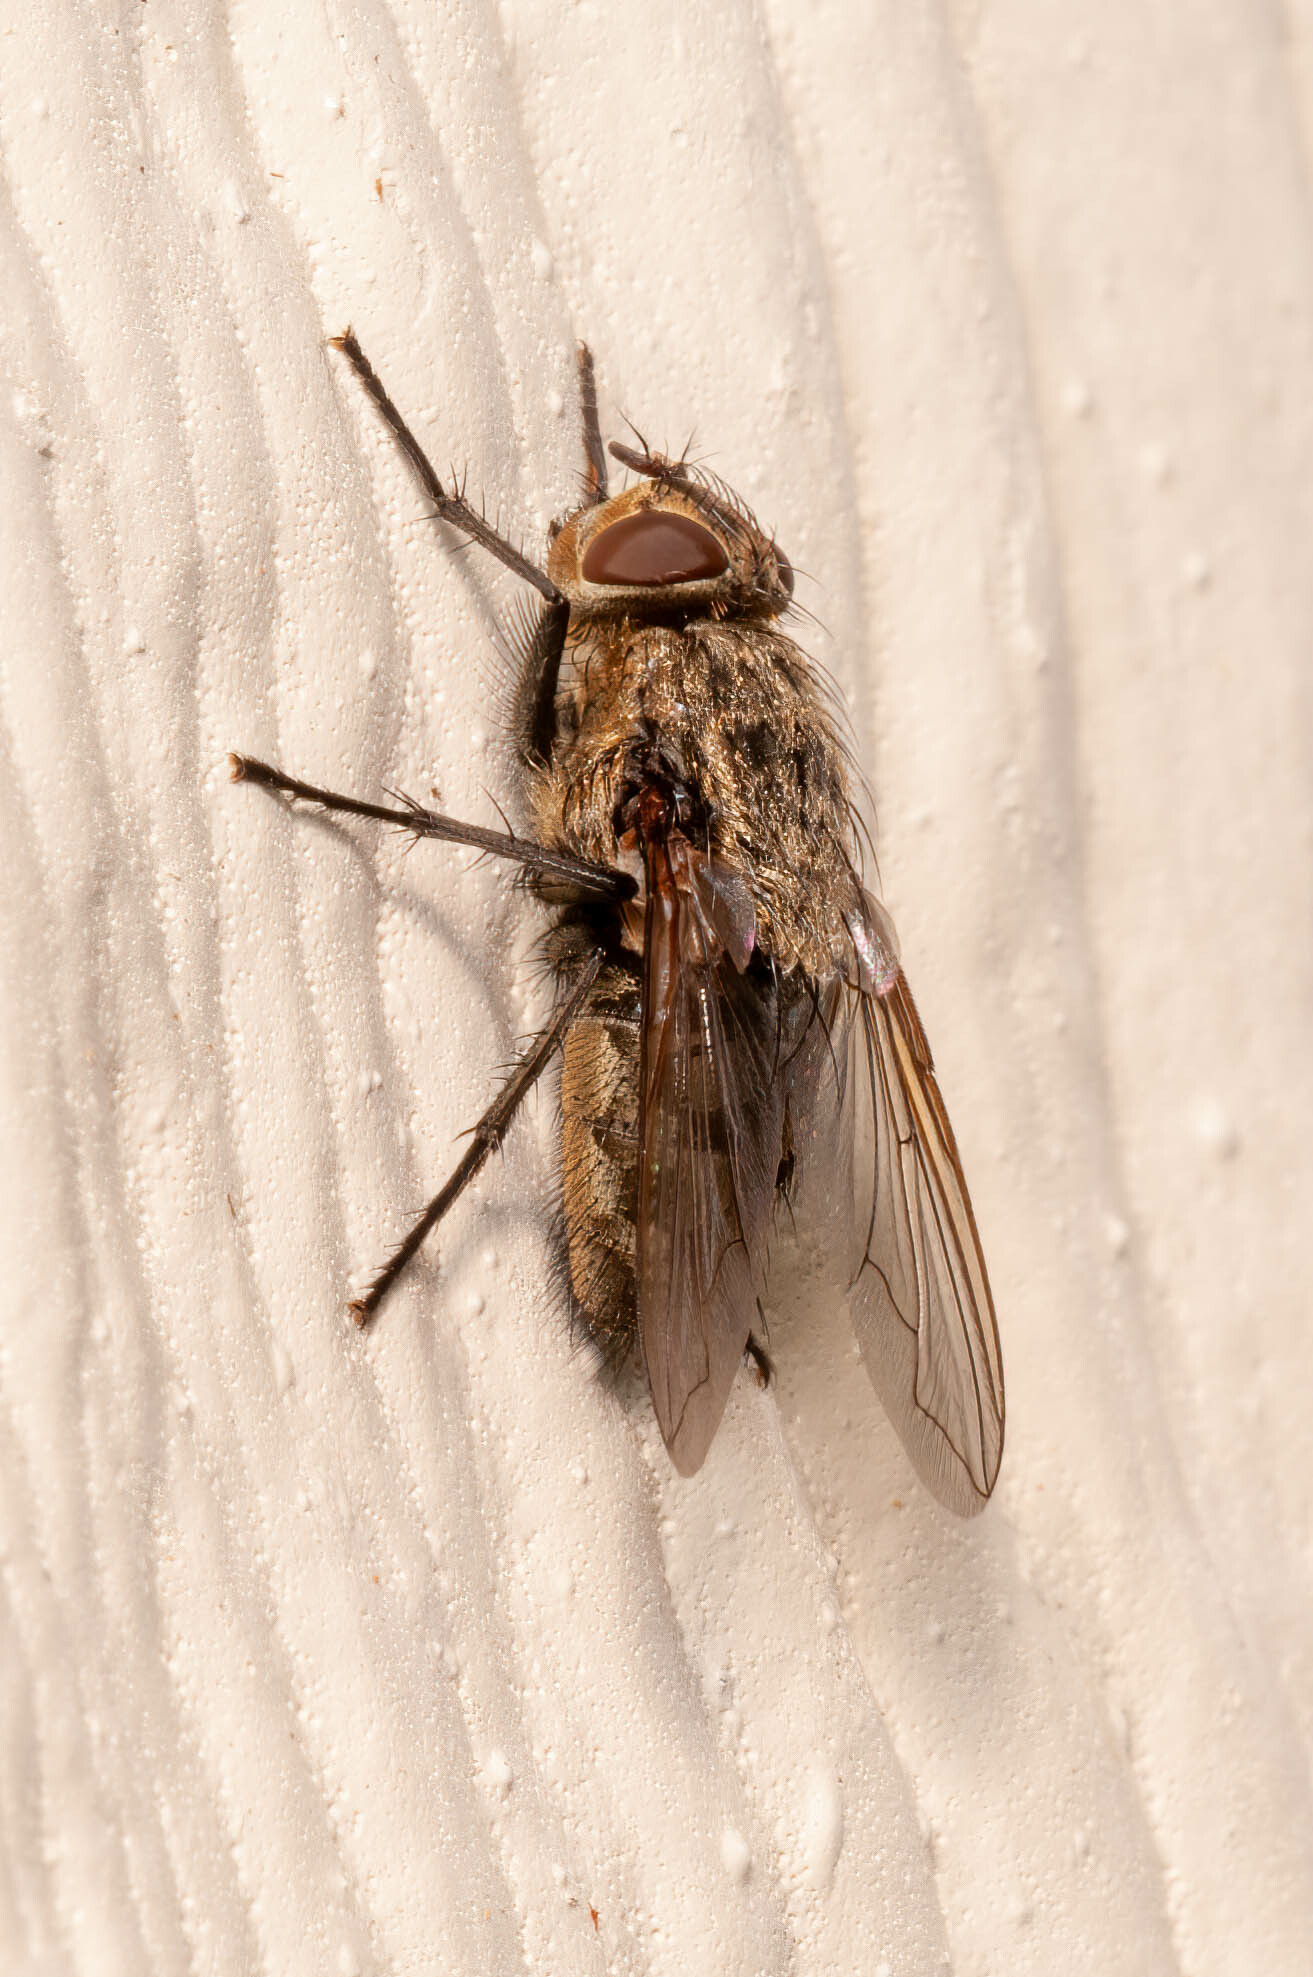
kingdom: Animalia
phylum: Arthropoda
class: Insecta
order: Diptera
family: Polleniidae
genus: Pollenia
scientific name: Pollenia
